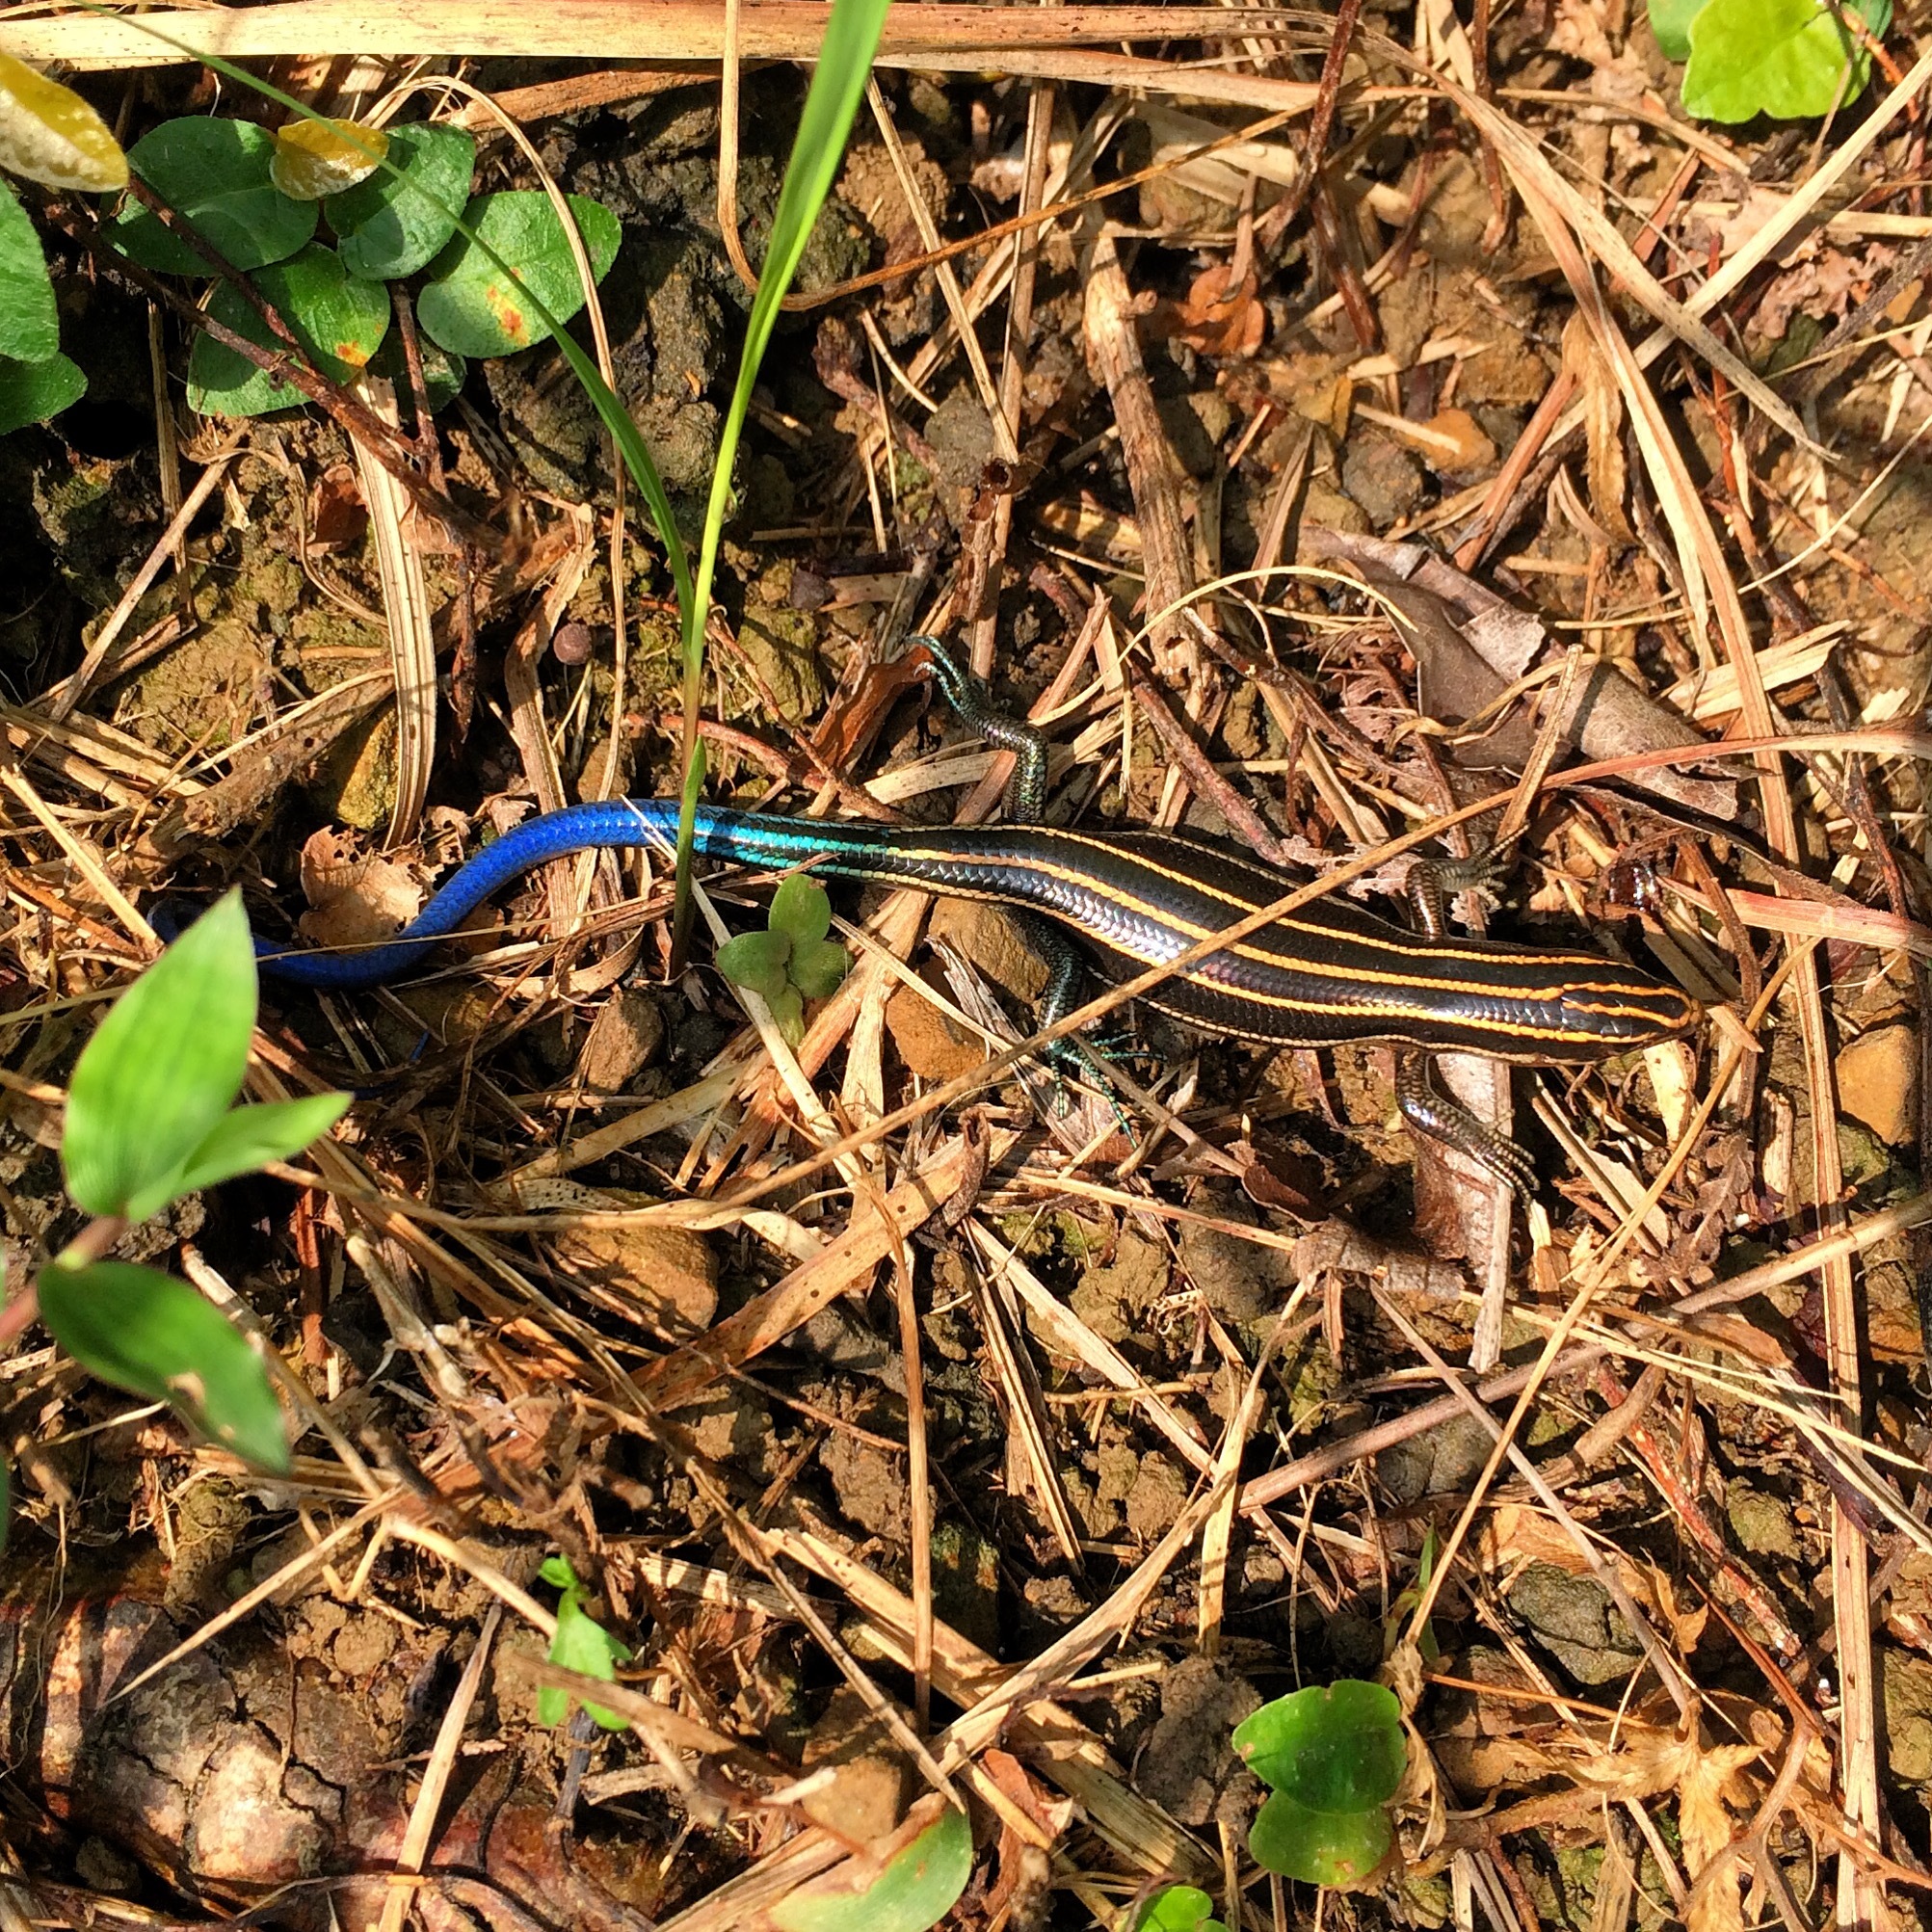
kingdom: Animalia
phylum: Chordata
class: Squamata
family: Scincidae
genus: Plestiodon
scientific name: Plestiodon elegans
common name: Shanghai elegant skink
